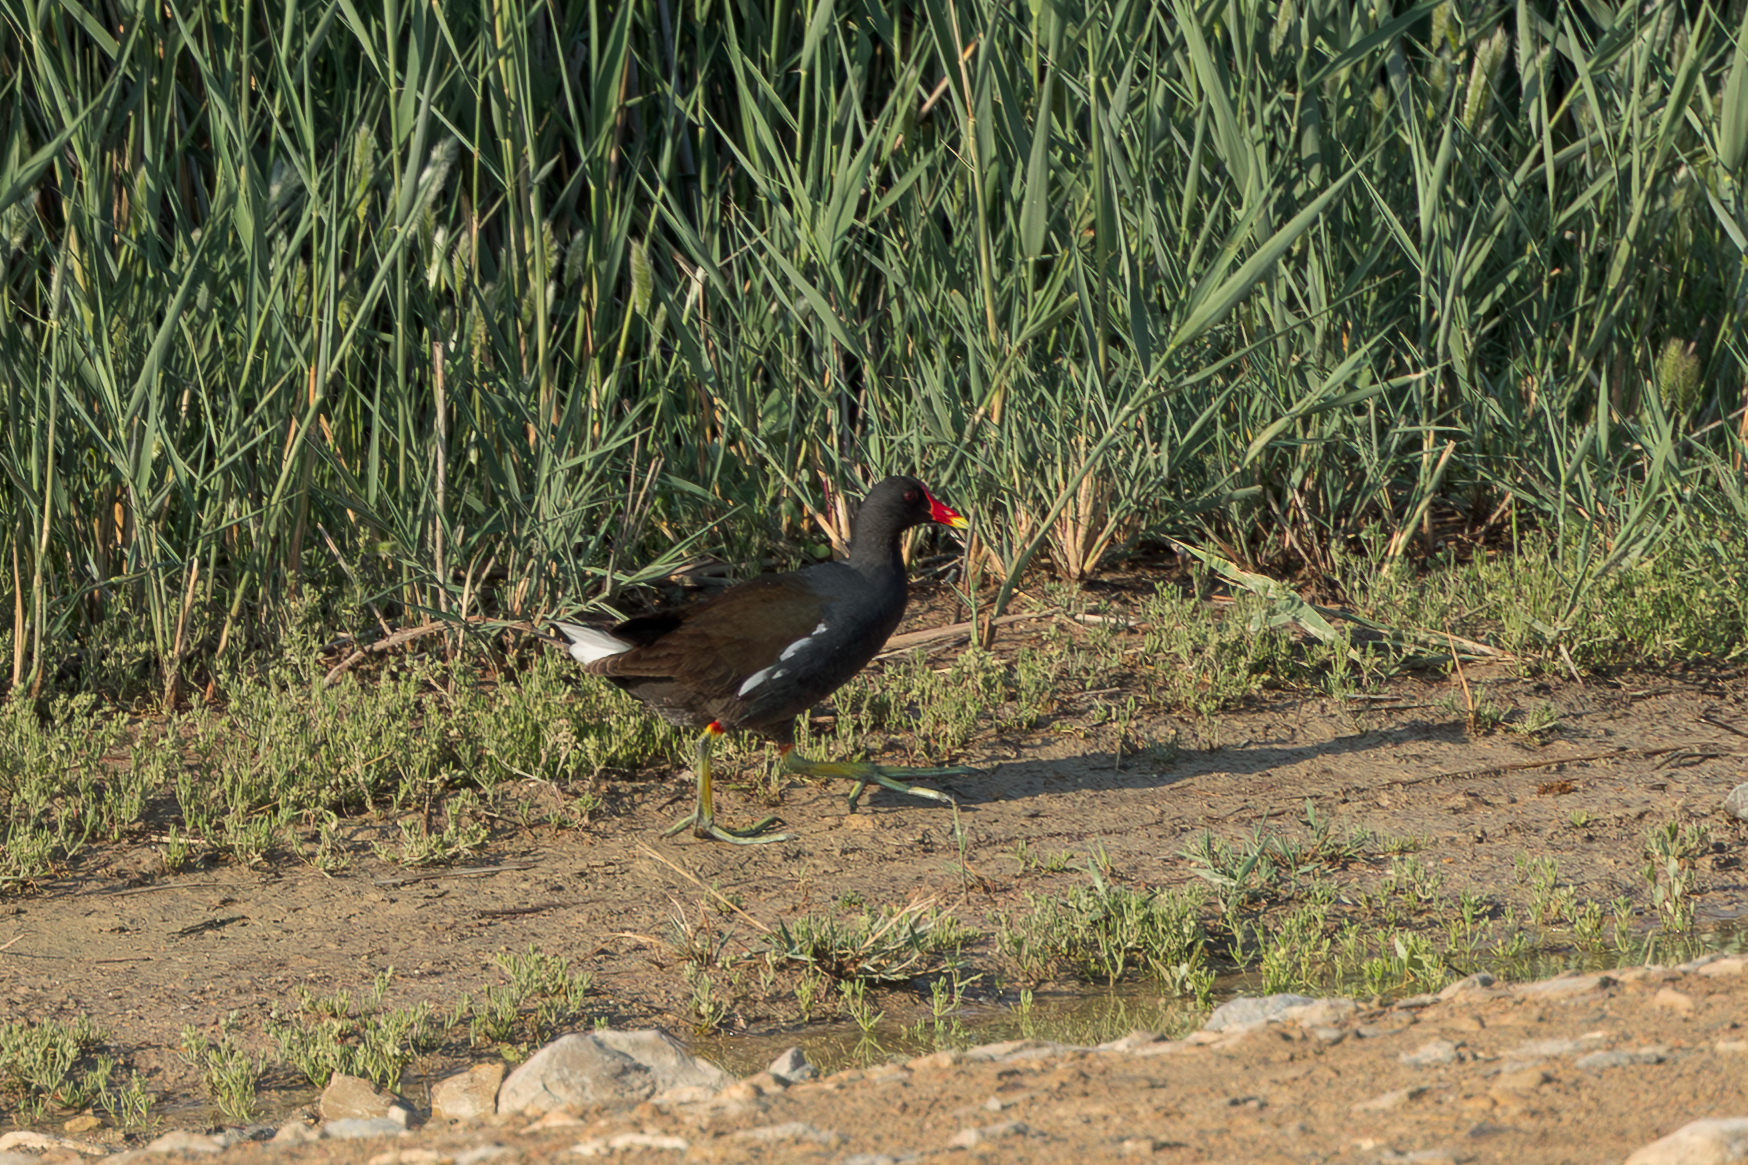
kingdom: Animalia
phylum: Chordata
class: Aves
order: Gruiformes
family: Rallidae
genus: Gallinula
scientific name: Gallinula chloropus
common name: Common moorhen
